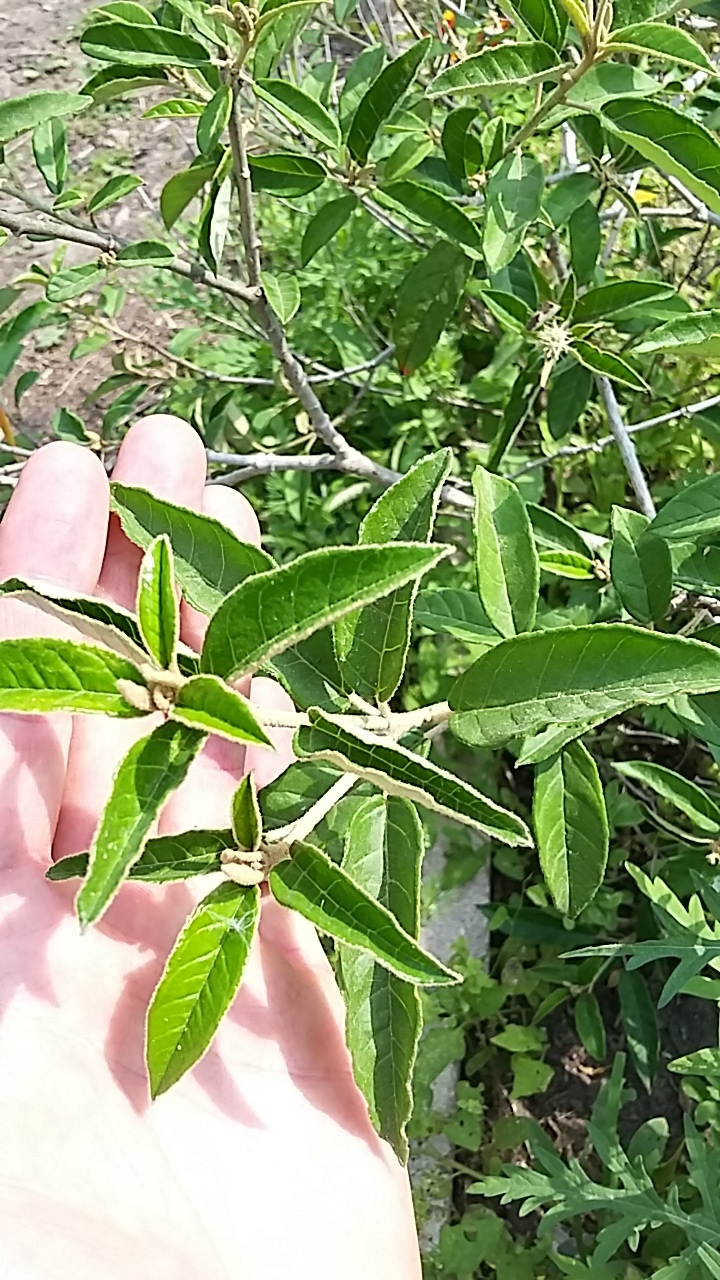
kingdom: Plantae
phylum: Tracheophyta
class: Magnoliopsida
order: Malpighiales
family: Euphorbiaceae
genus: Croton
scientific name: Croton cortesianus
